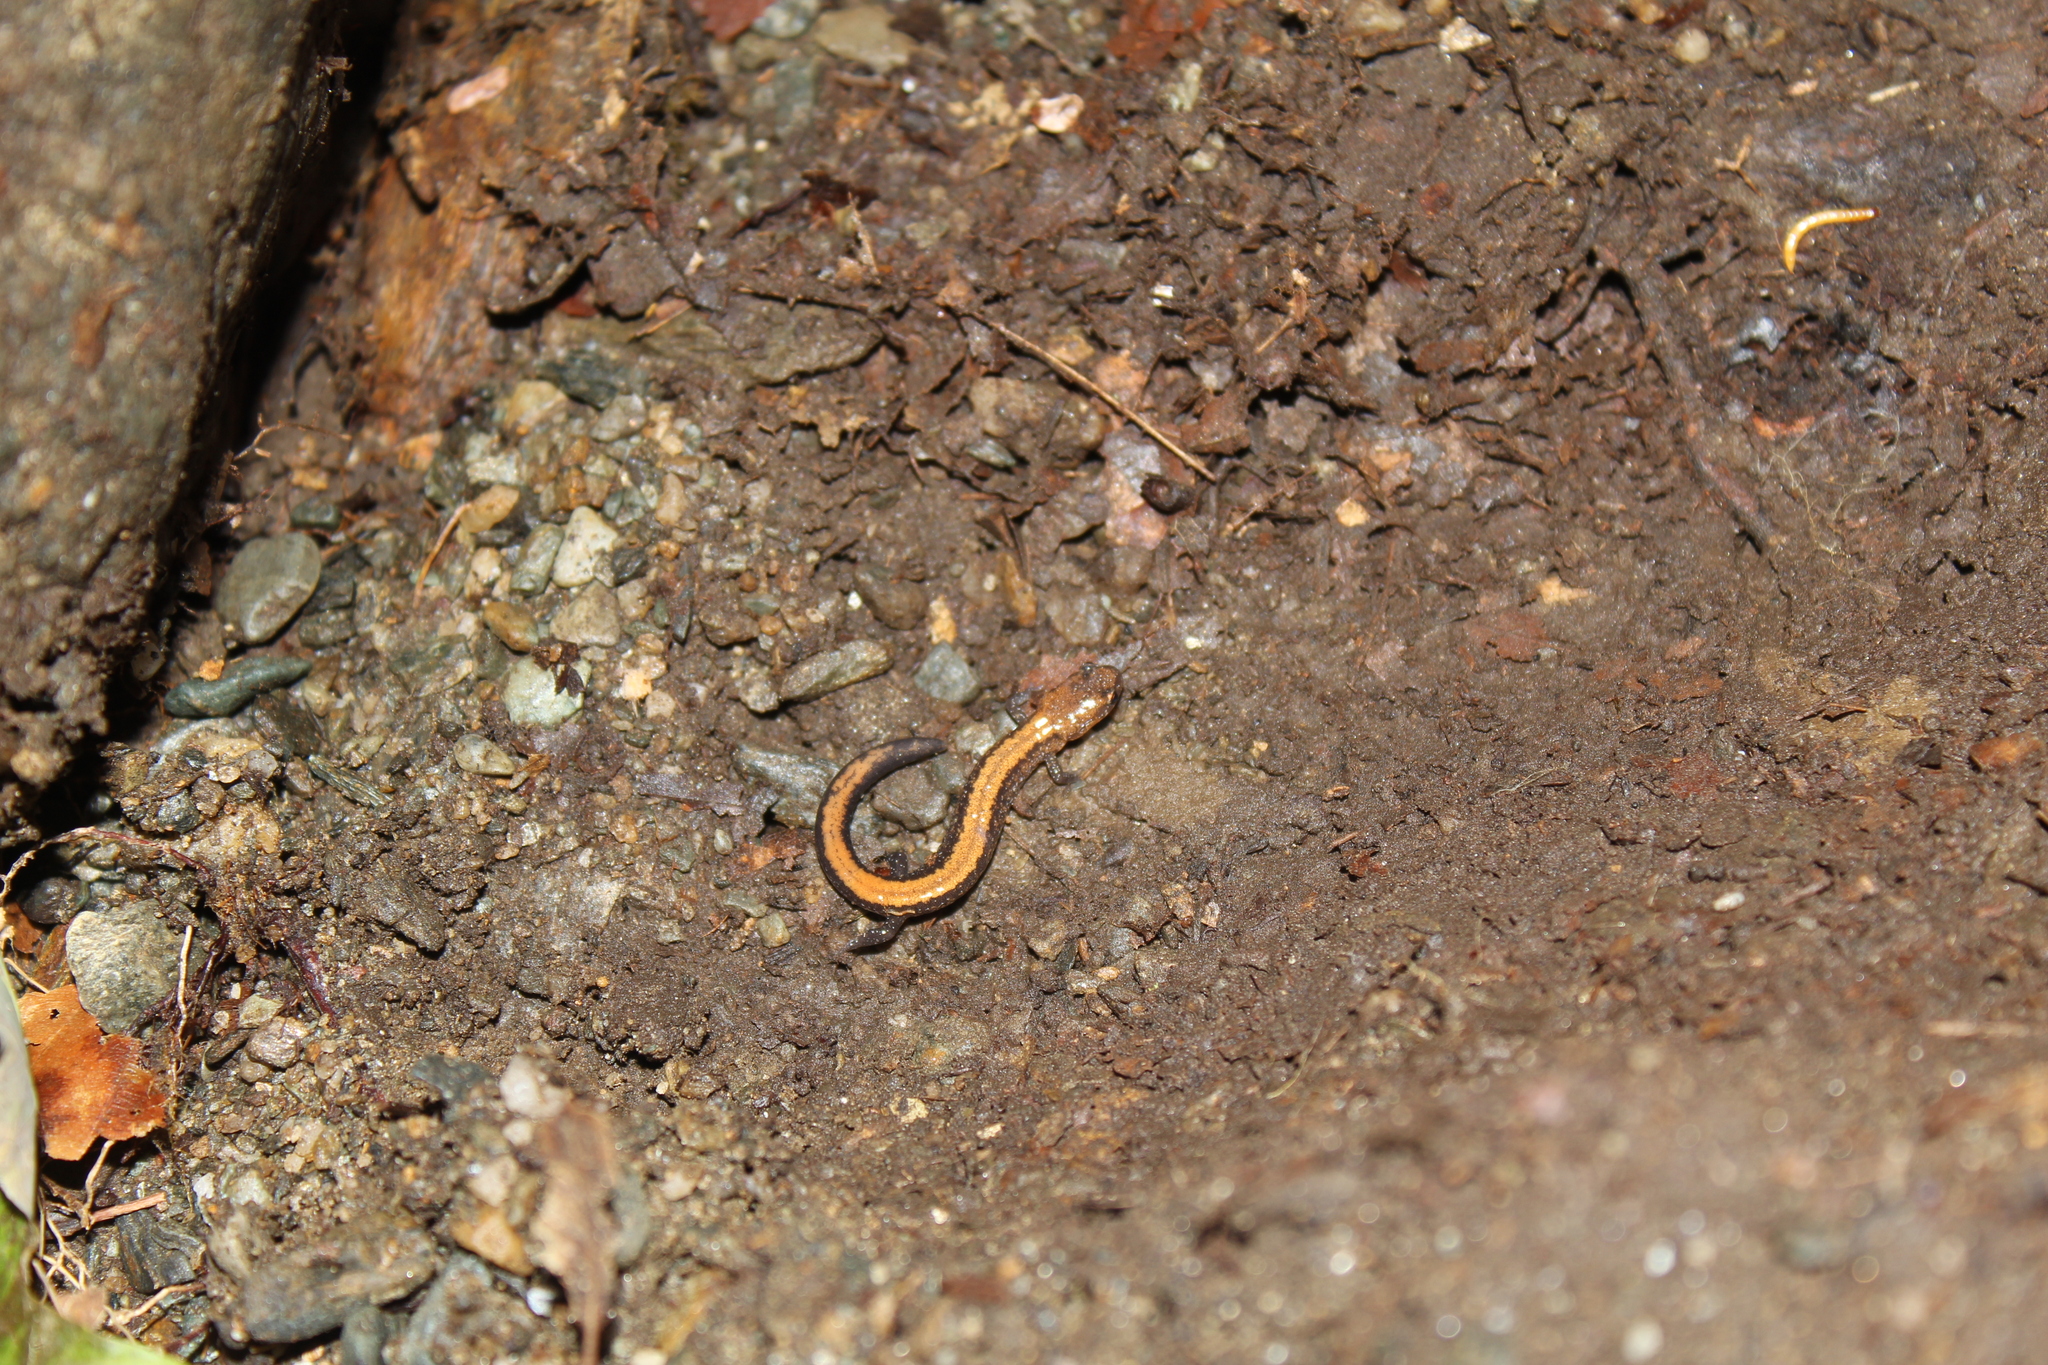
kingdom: Animalia
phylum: Chordata
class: Amphibia
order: Caudata
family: Plethodontidae
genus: Plethodon
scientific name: Plethodon cinereus
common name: Redback salamander
